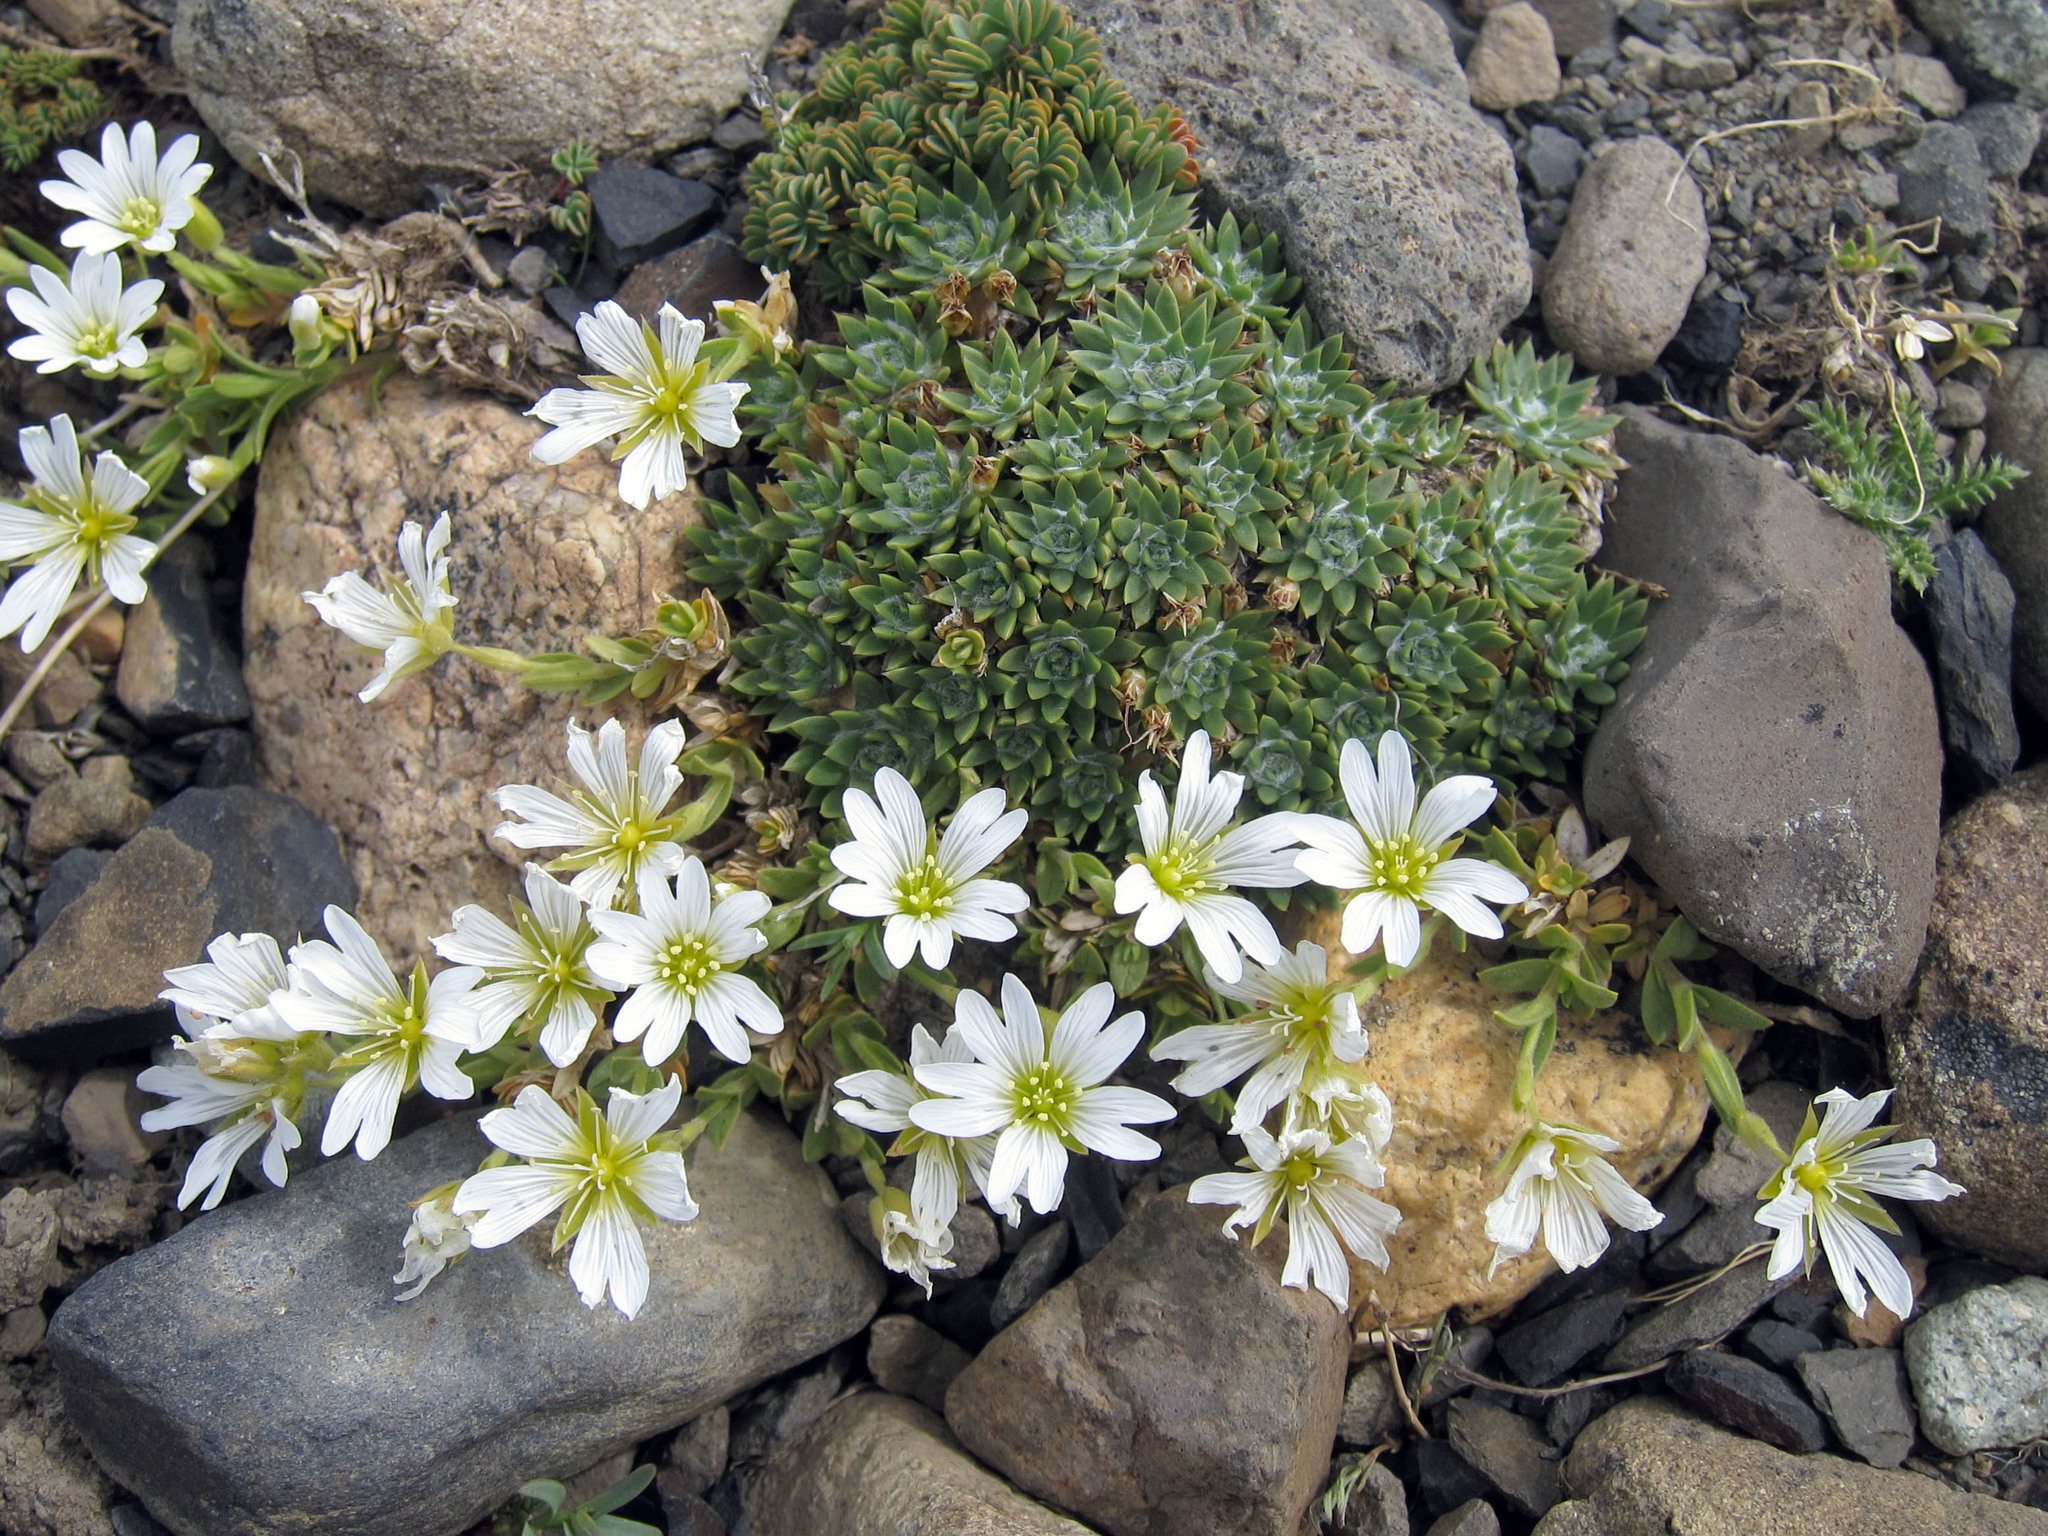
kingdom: Plantae
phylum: Tracheophyta
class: Magnoliopsida
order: Lamiales
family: Plantaginaceae
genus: Plantago
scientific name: Plantago sempervivoides
